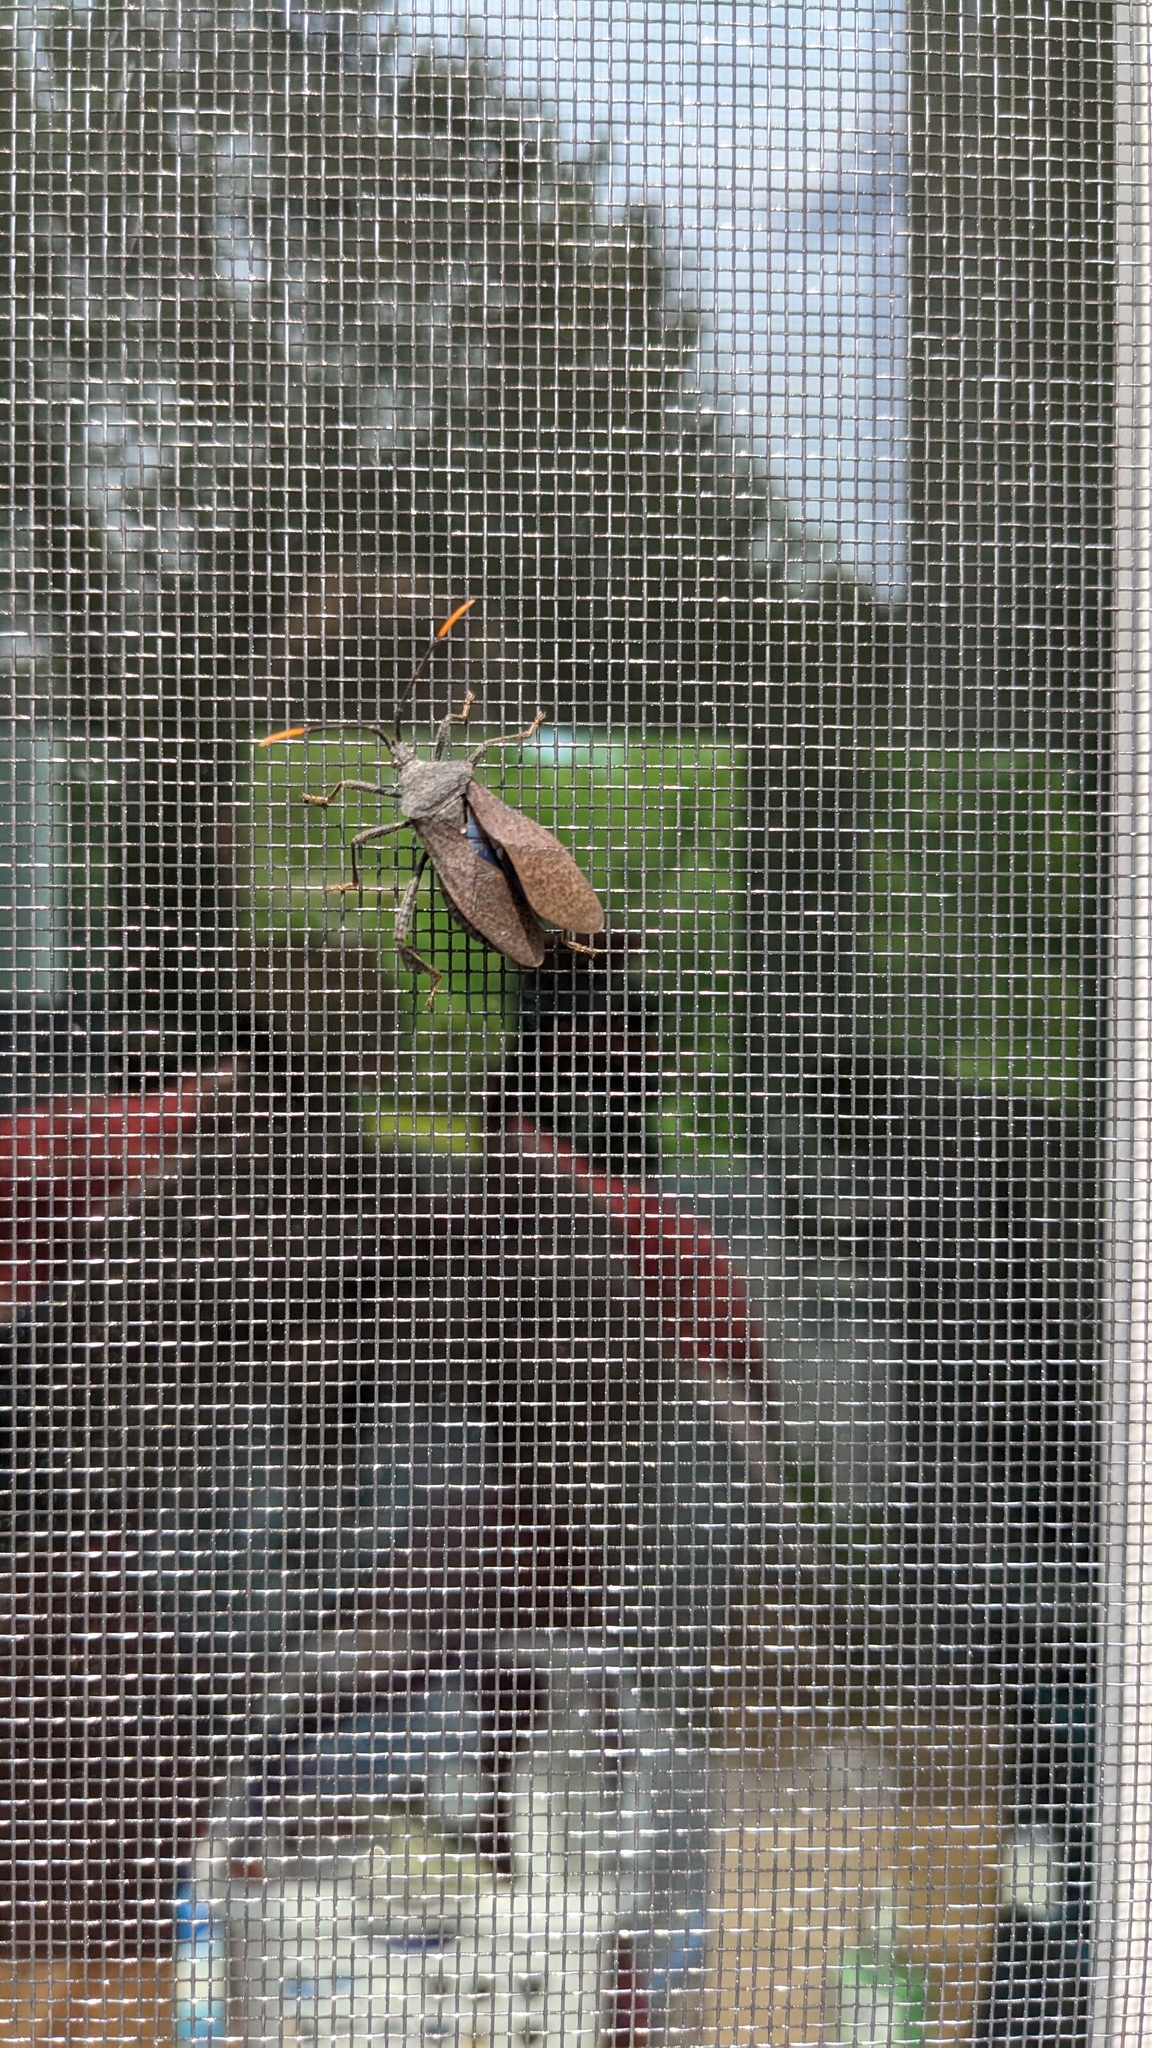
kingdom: Animalia
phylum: Arthropoda
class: Insecta
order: Hemiptera
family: Coreidae
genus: Acanthocephala
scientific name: Acanthocephala terminalis
